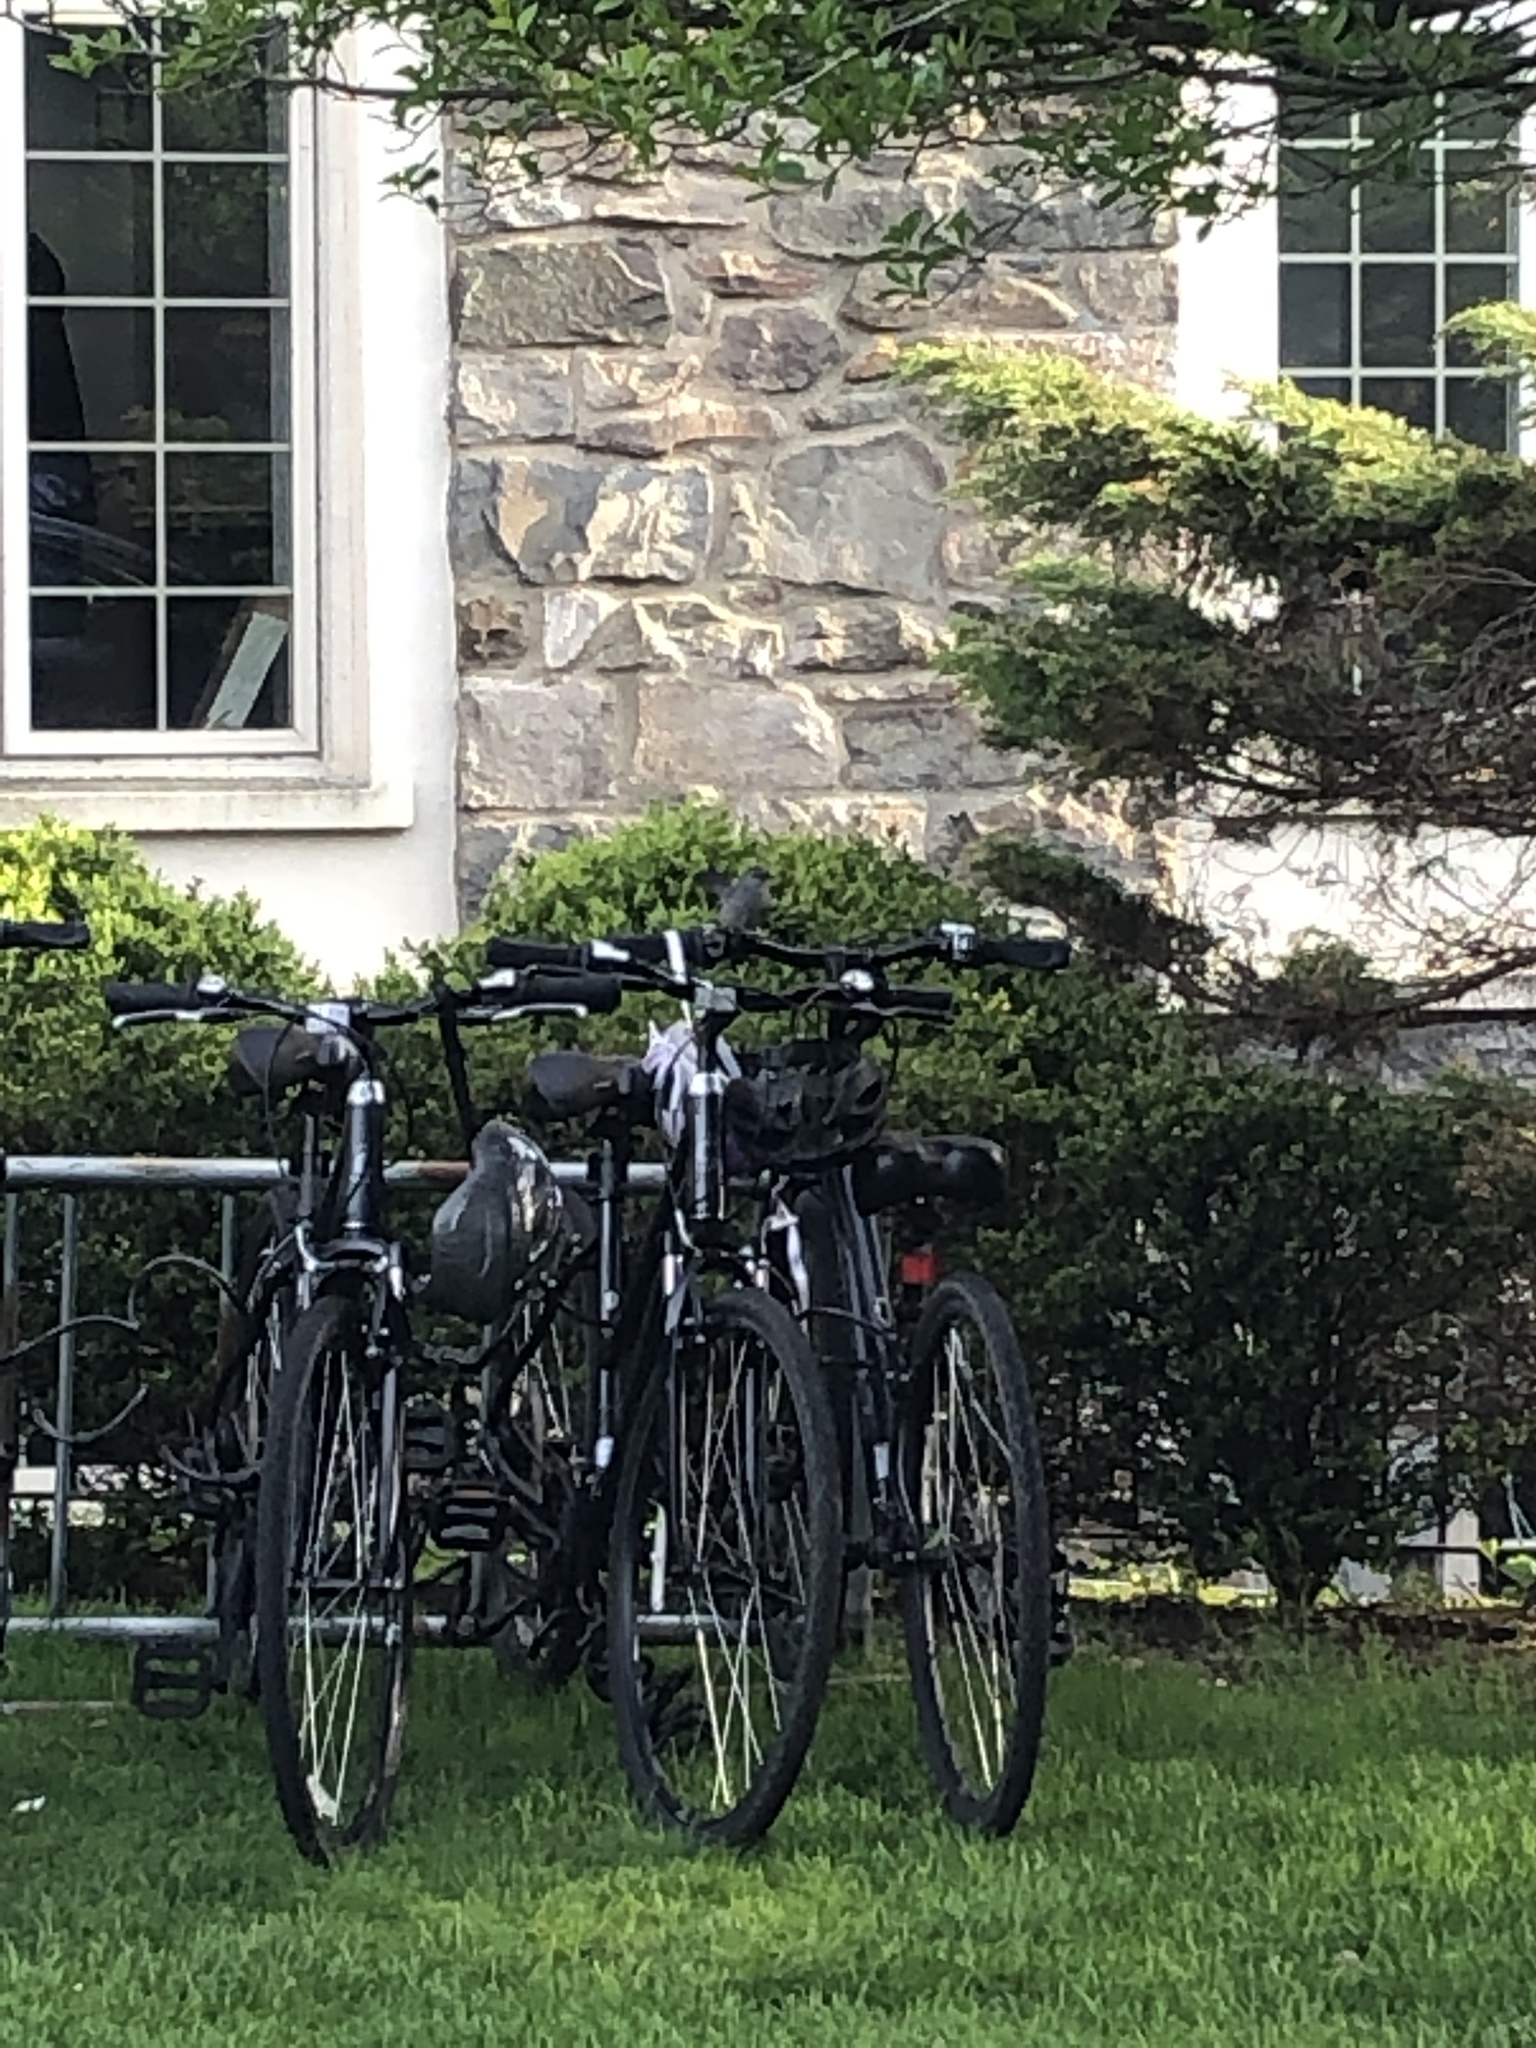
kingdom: Animalia
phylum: Chordata
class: Aves
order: Passeriformes
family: Mimidae
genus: Dumetella
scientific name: Dumetella carolinensis
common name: Gray catbird
